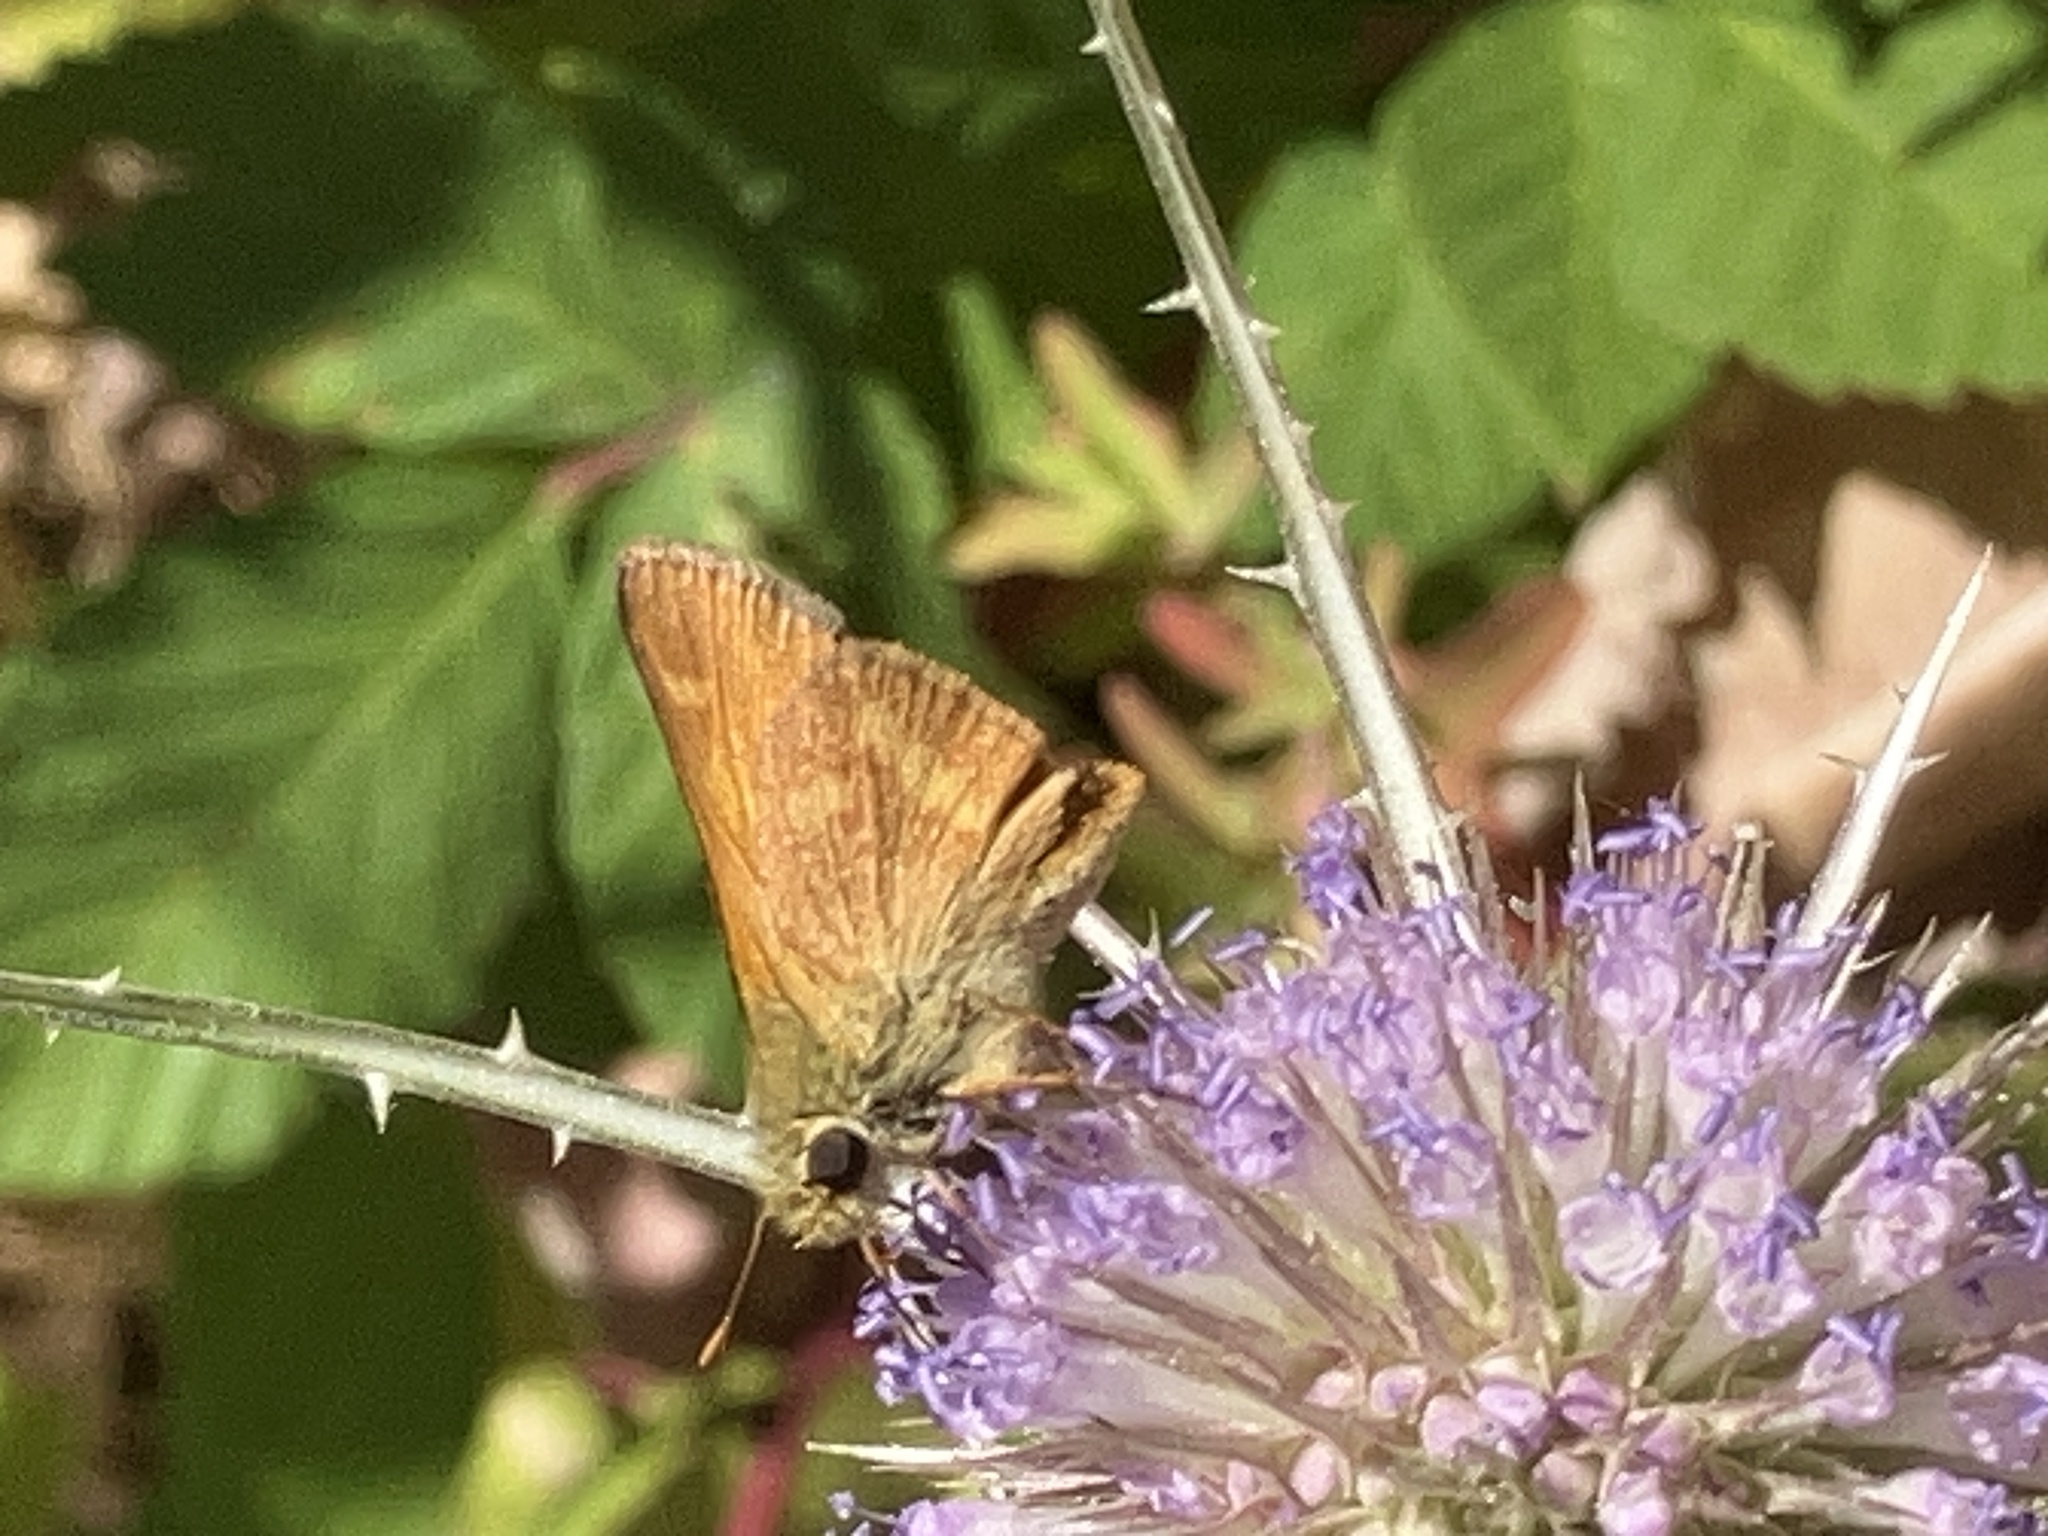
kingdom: Animalia
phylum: Arthropoda
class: Insecta
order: Lepidoptera
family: Hesperiidae
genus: Ochlodes
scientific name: Ochlodes sylvanoides
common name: Woodland skipper
